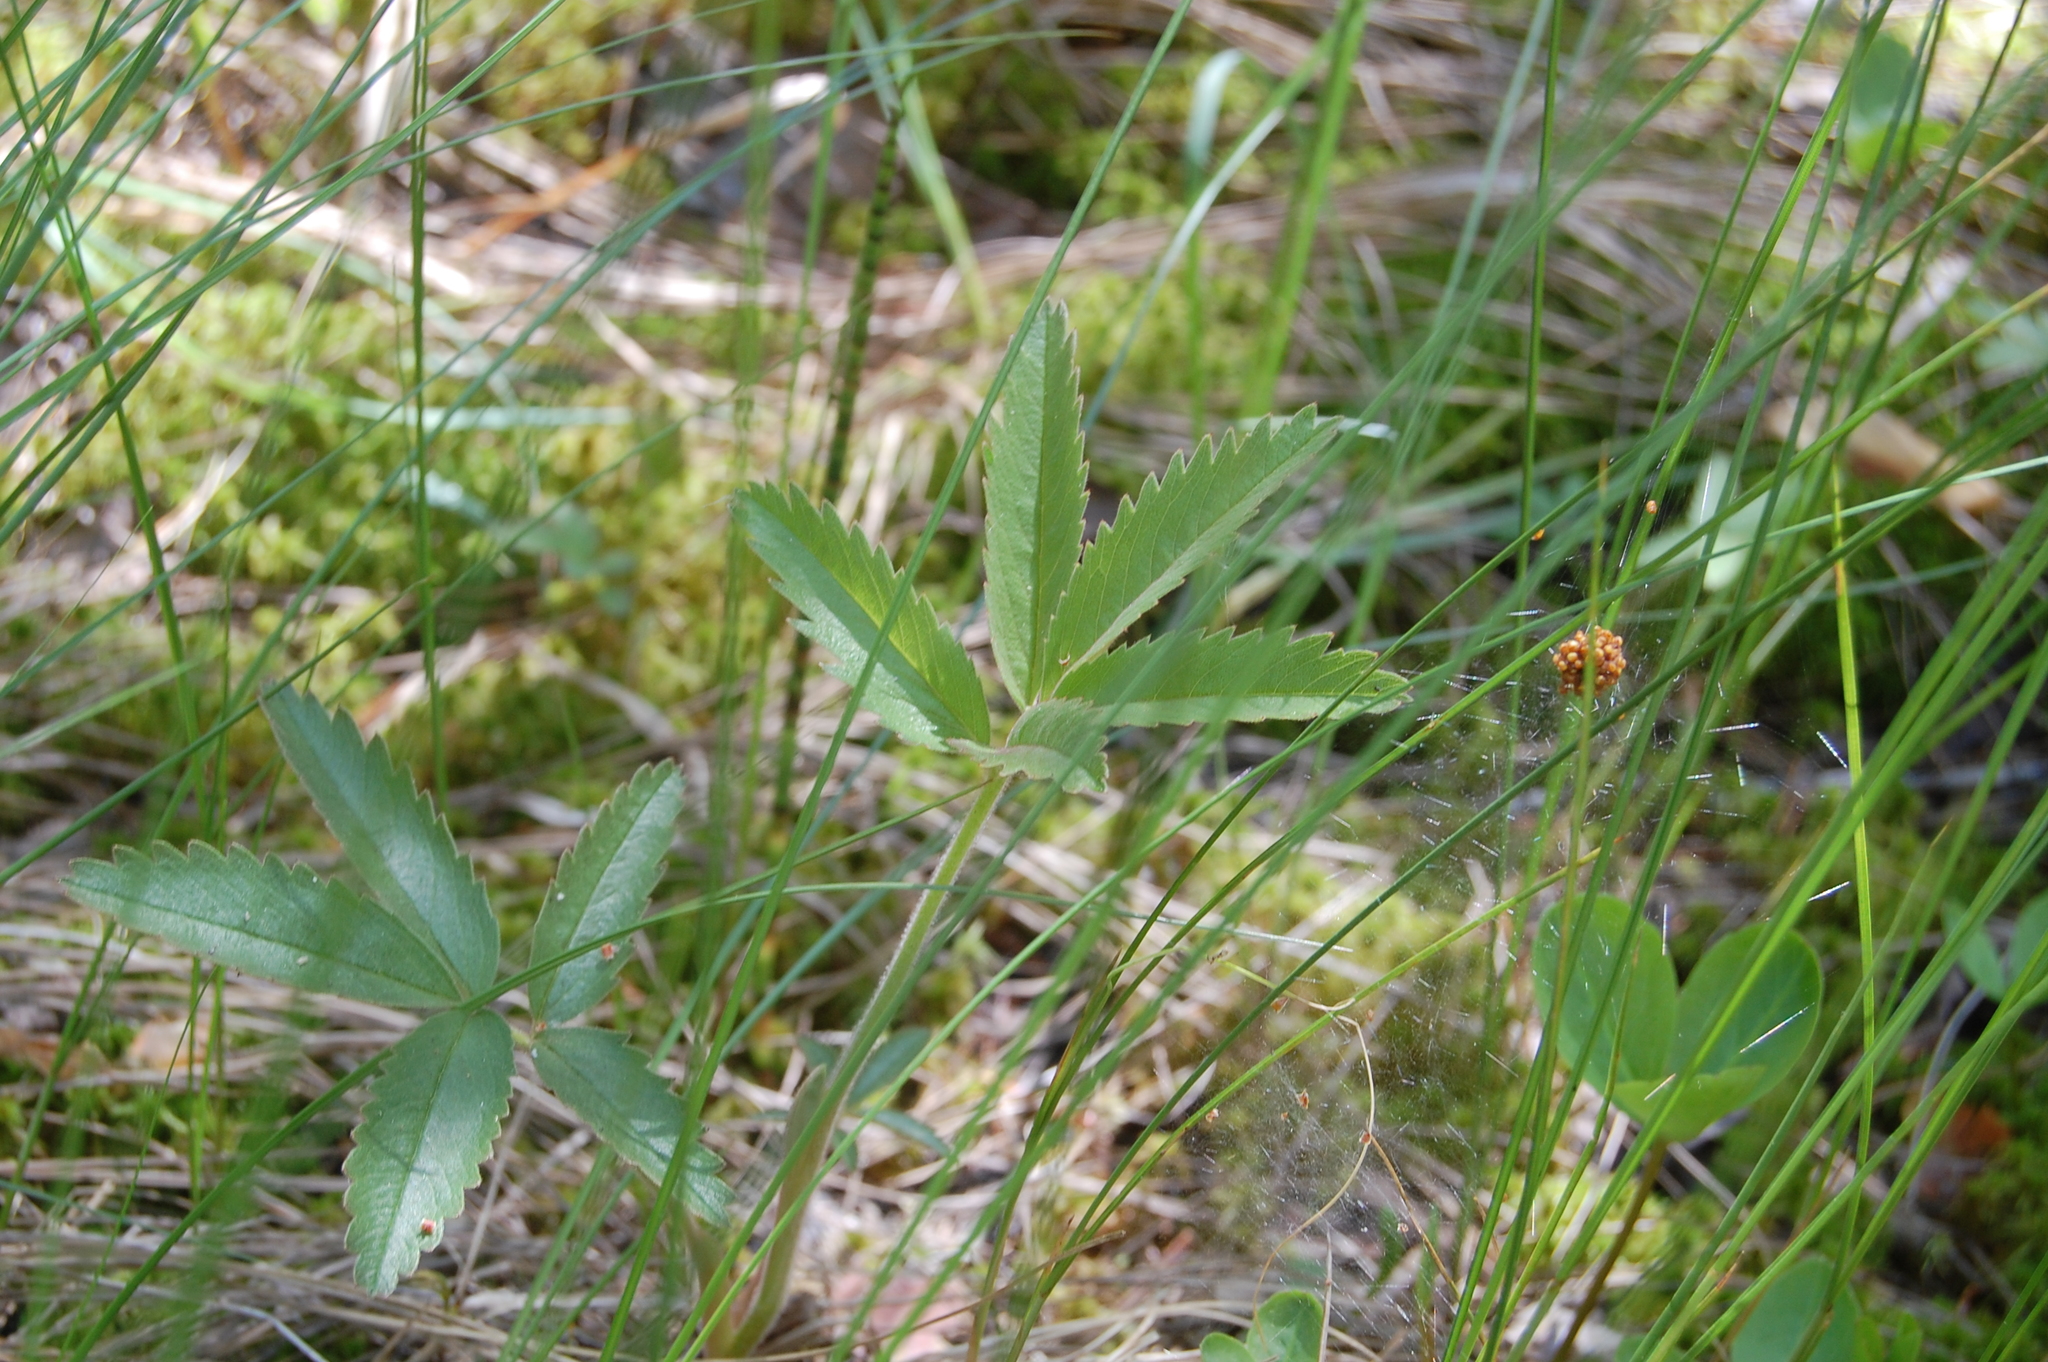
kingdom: Plantae
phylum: Tracheophyta
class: Magnoliopsida
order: Rosales
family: Rosaceae
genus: Comarum
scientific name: Comarum palustre
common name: Marsh cinquefoil
